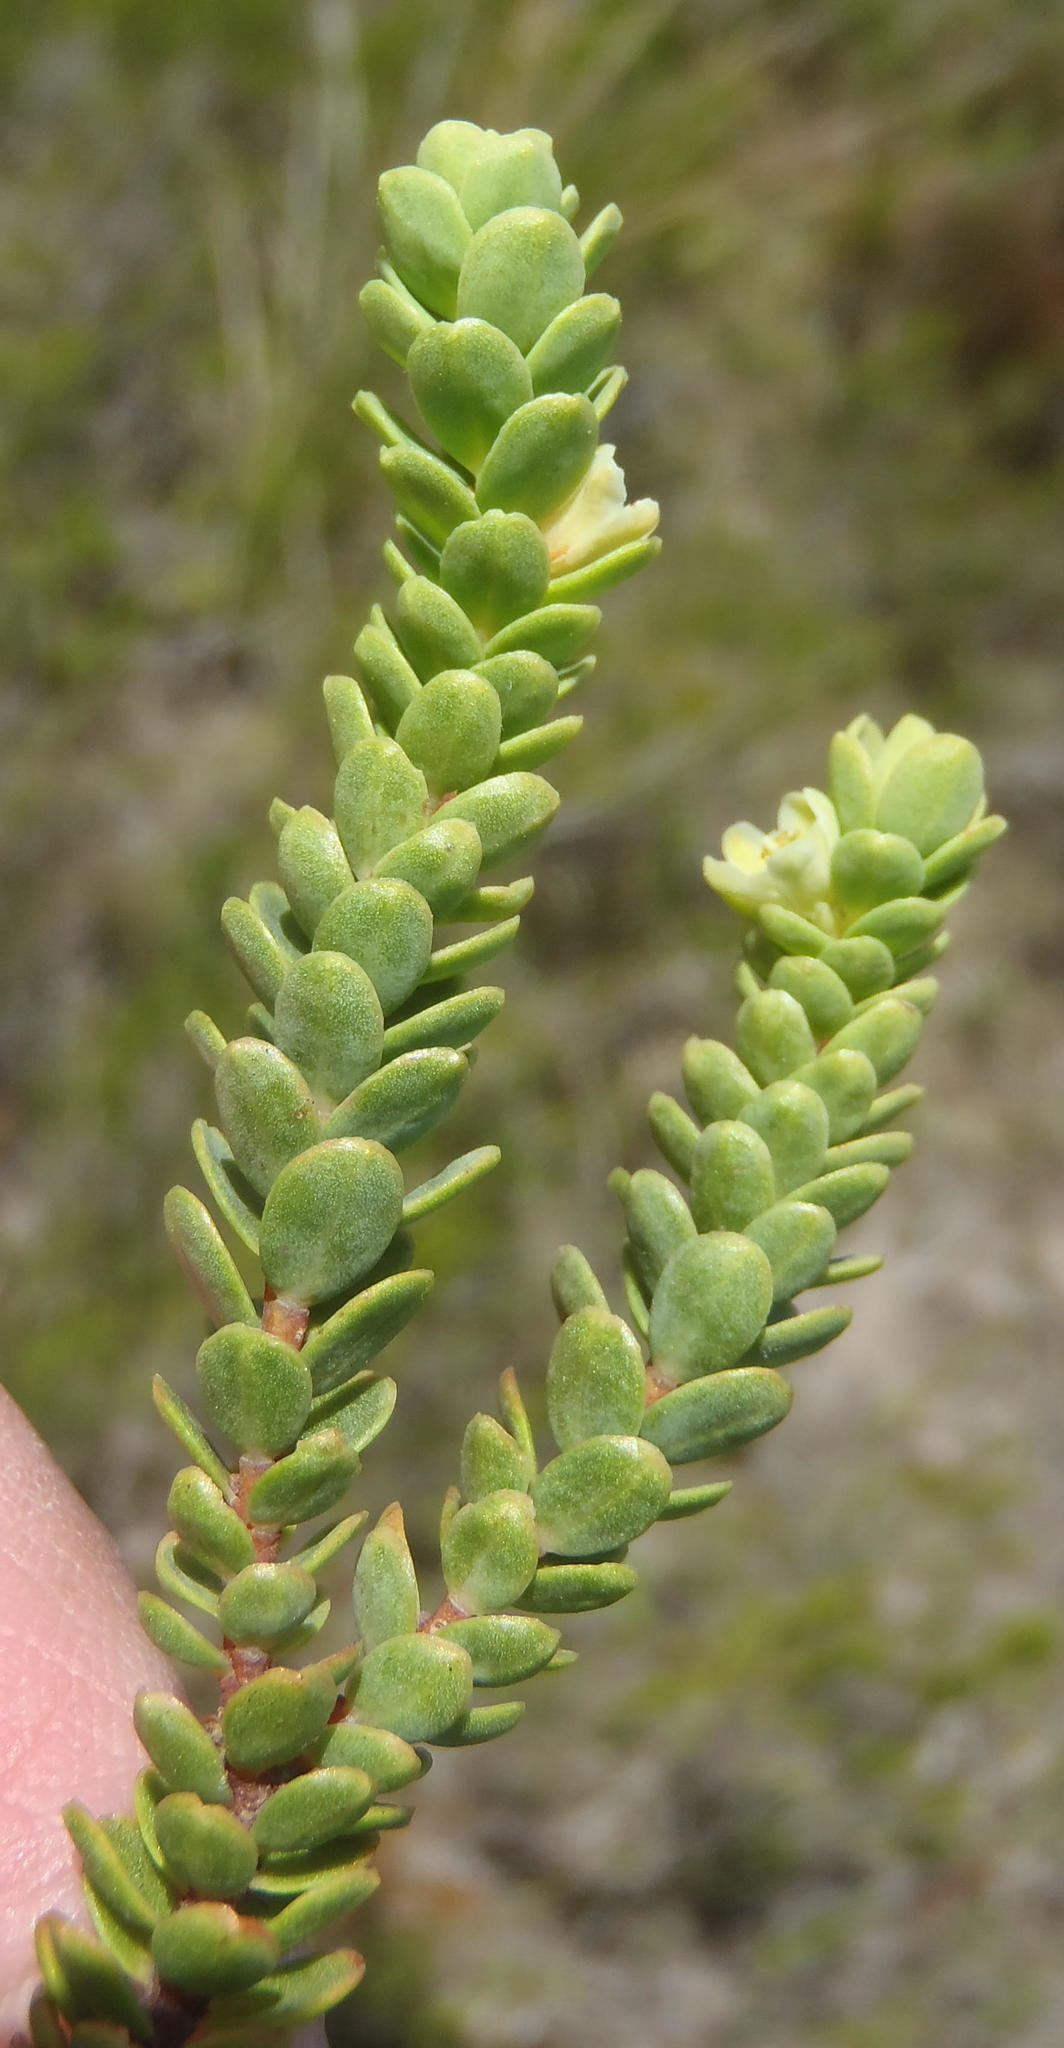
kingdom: Plantae
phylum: Tracheophyta
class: Magnoliopsida
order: Malpighiales
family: Peraceae
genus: Clutia
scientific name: Clutia laxa
